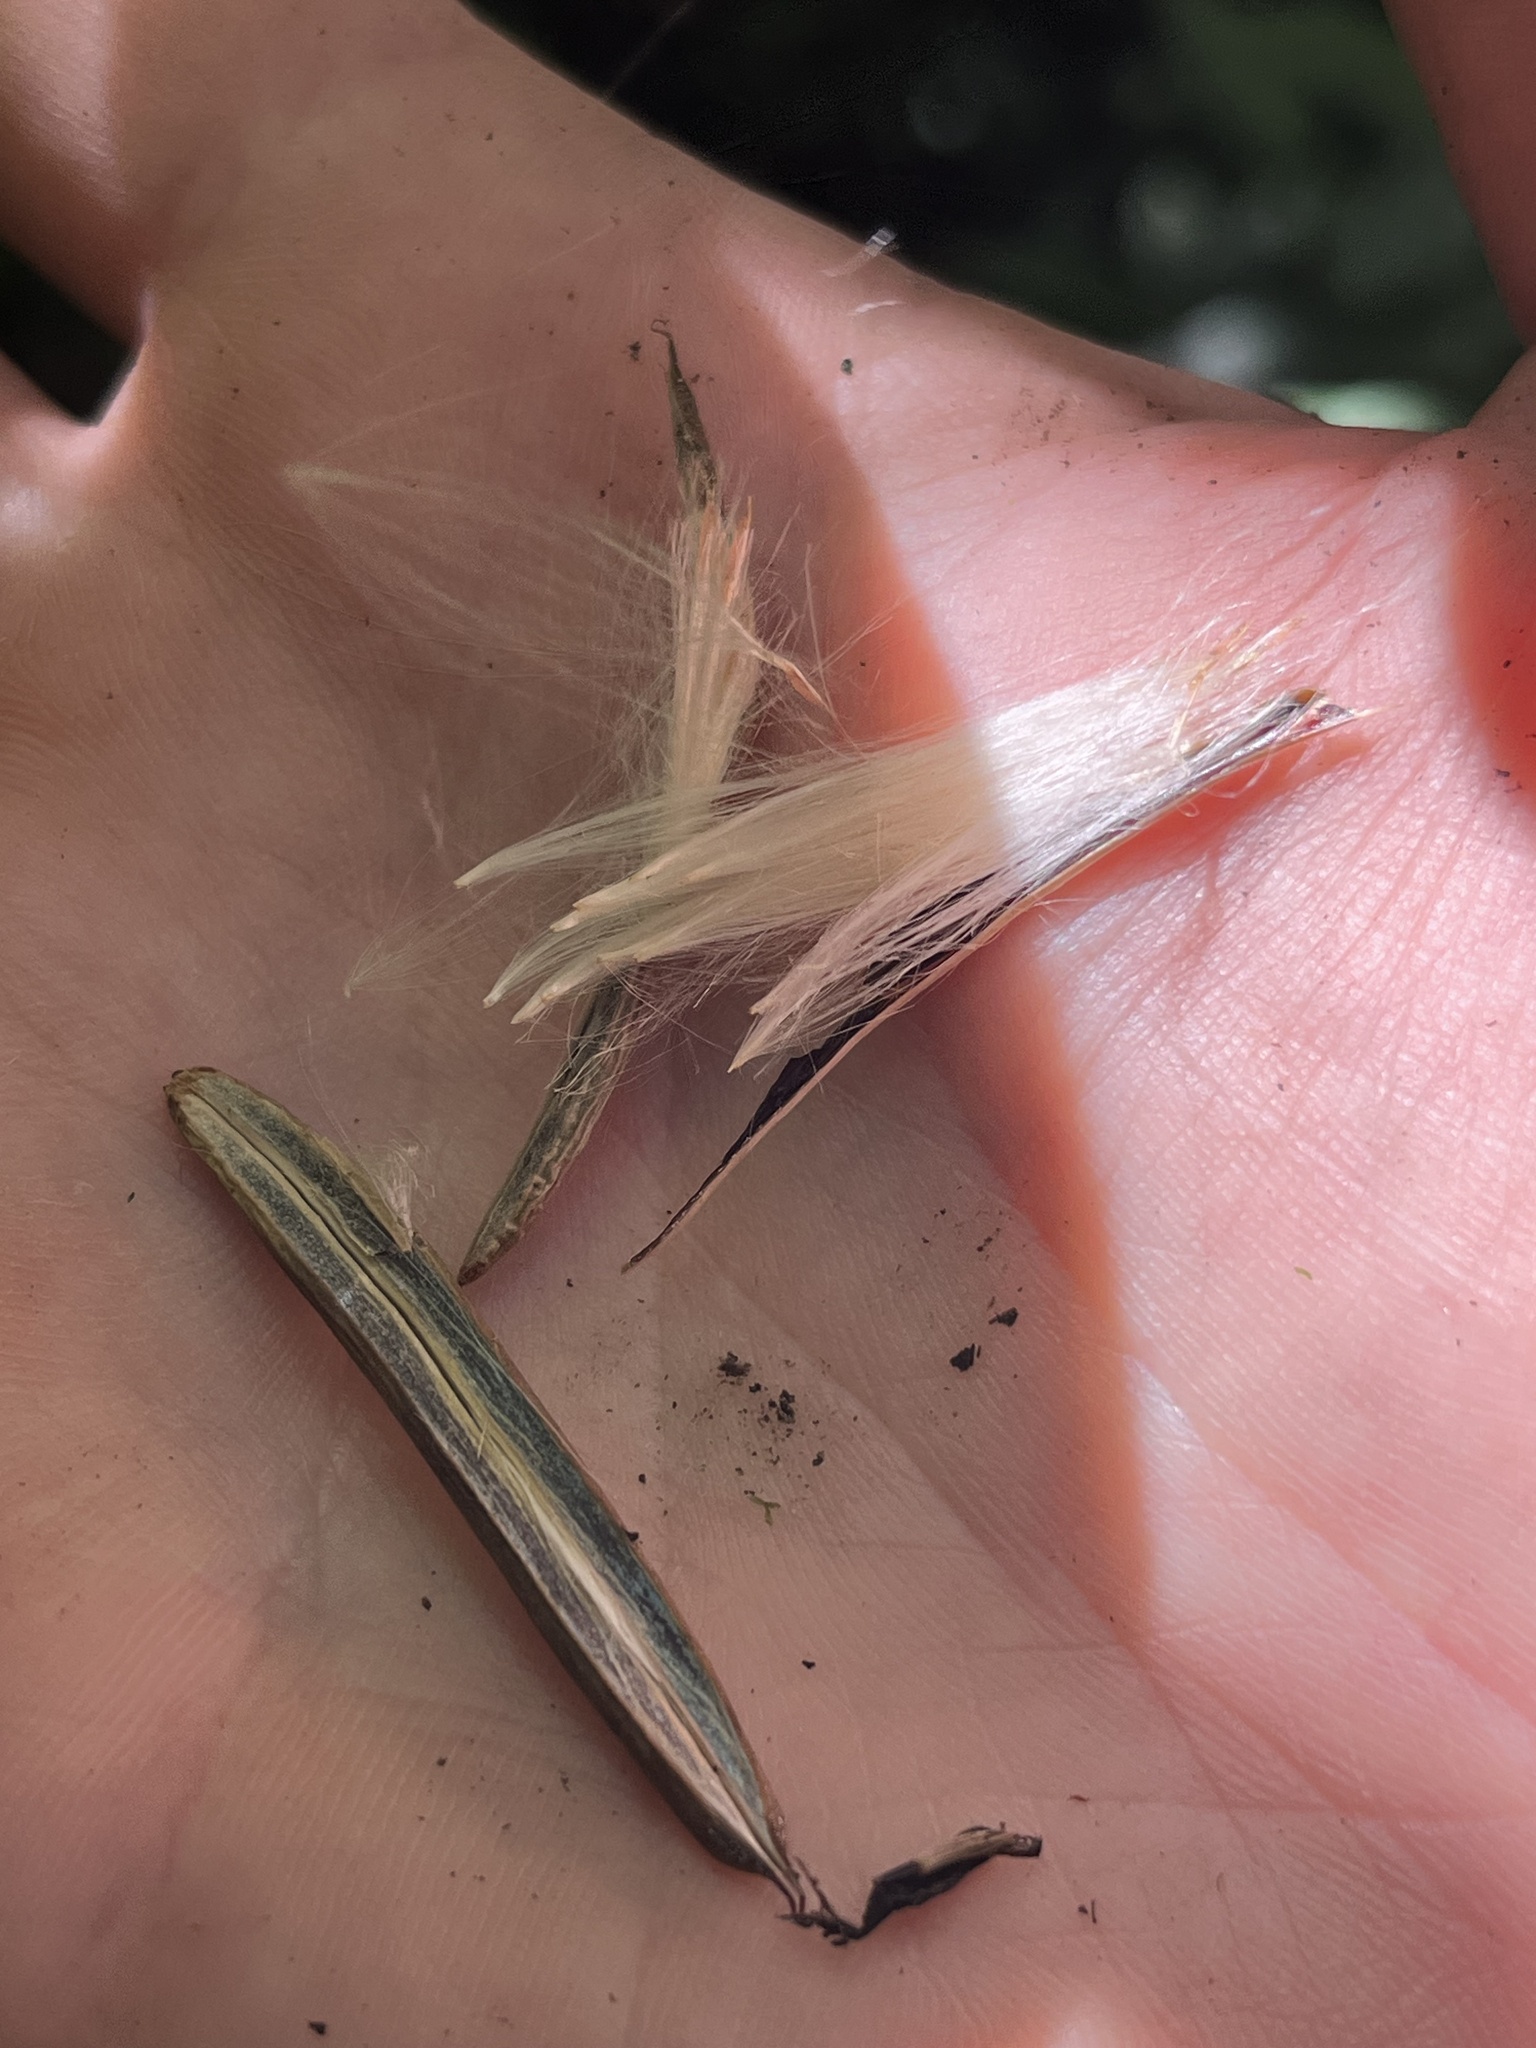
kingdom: Plantae
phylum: Tracheophyta
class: Liliopsida
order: Poales
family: Bromeliaceae
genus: Tillandsia
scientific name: Tillandsia complanata
